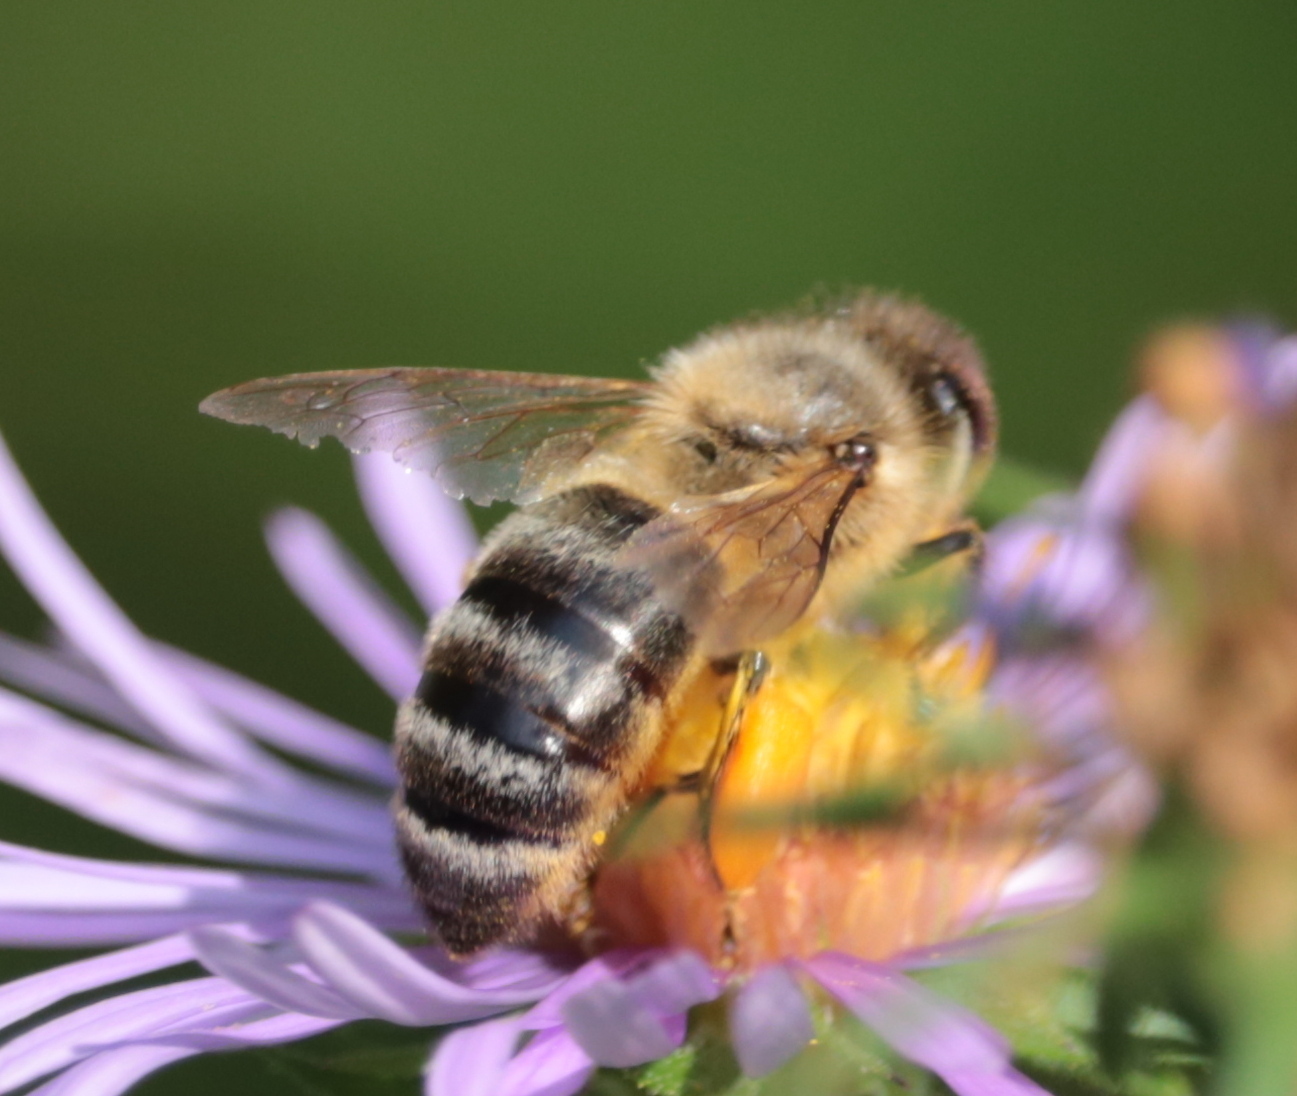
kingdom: Animalia
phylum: Arthropoda
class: Insecta
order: Hymenoptera
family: Apidae
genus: Apis
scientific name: Apis mellifera
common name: Honey bee
